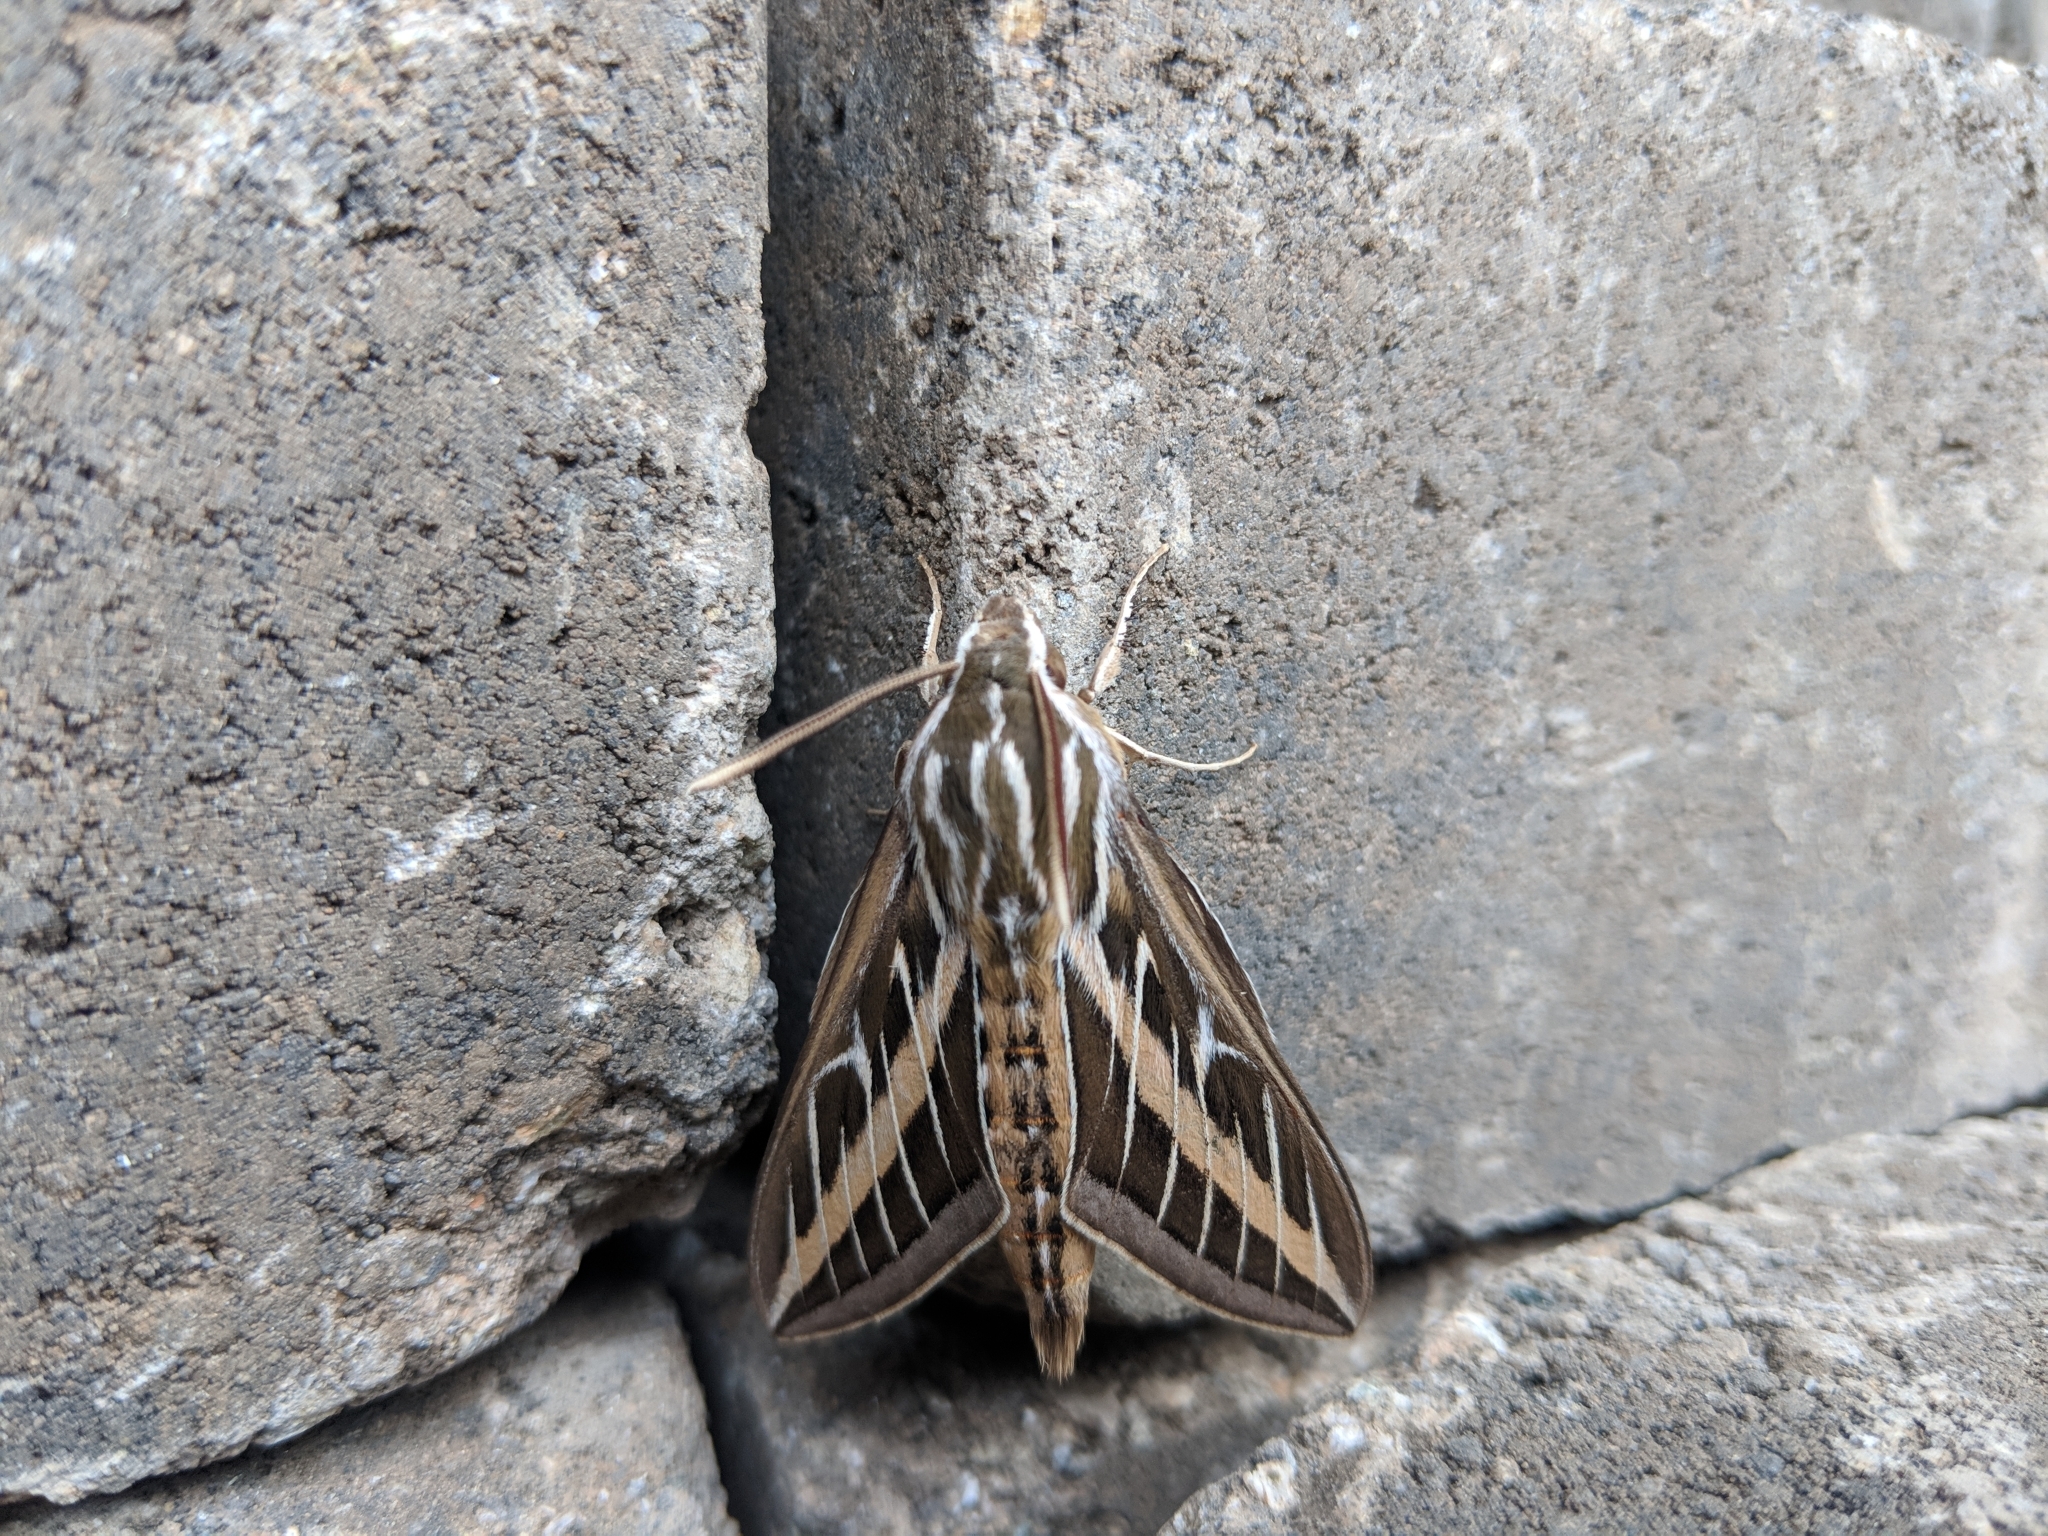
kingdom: Animalia
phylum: Arthropoda
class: Insecta
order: Lepidoptera
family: Sphingidae
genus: Hyles
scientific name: Hyles lineata
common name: White-lined sphinx
